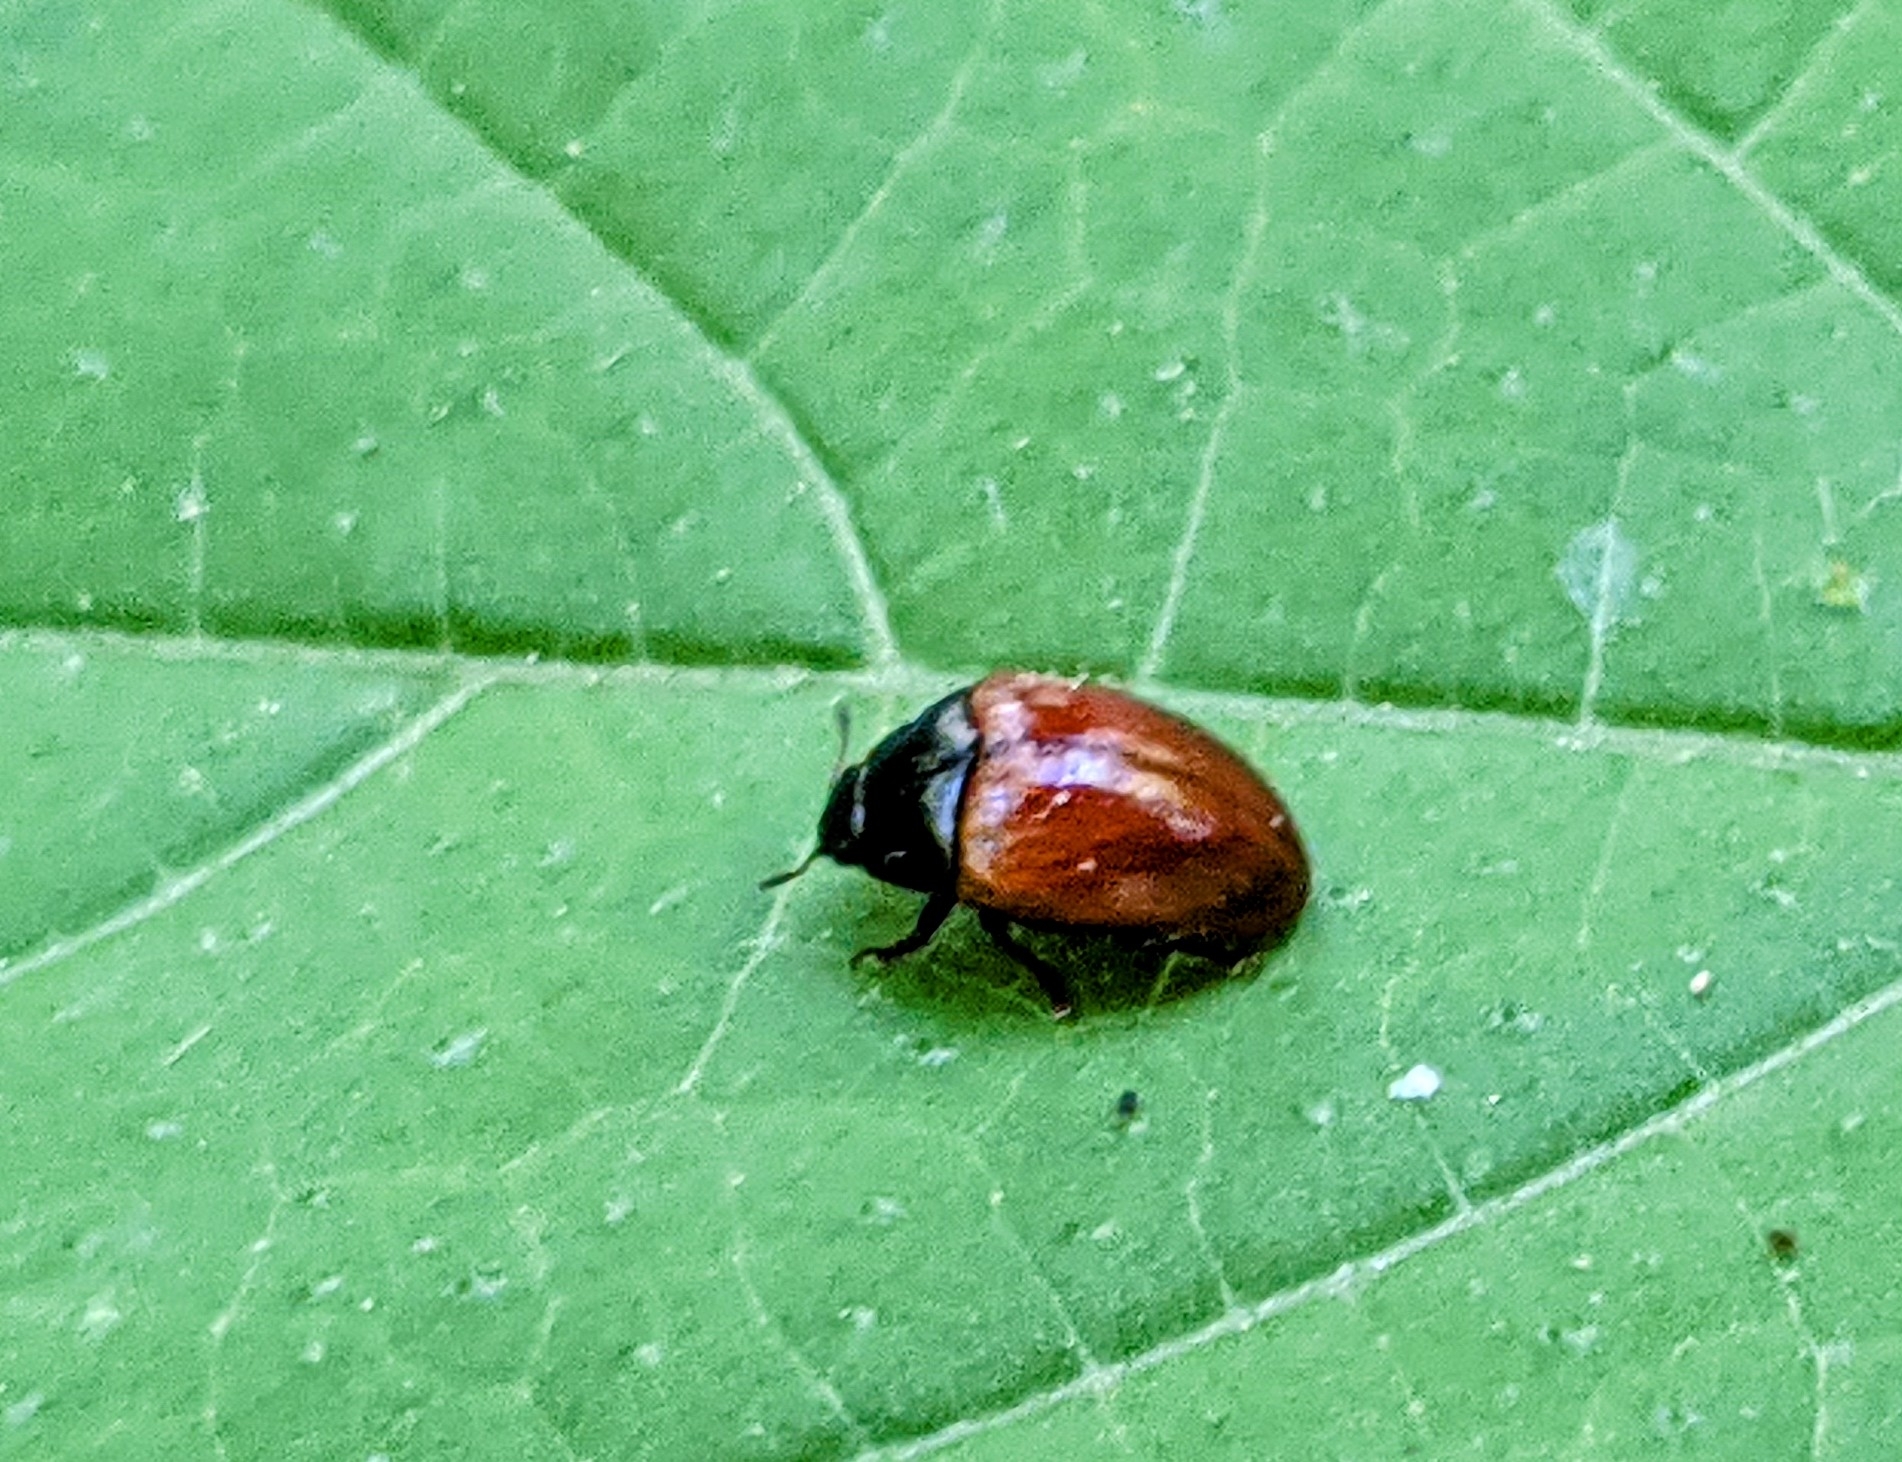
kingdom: Animalia
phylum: Arthropoda
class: Insecta
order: Coleoptera
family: Erotylidae
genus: Tritoma
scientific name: Tritoma sanguinipennis
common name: Red-winged tritoma
